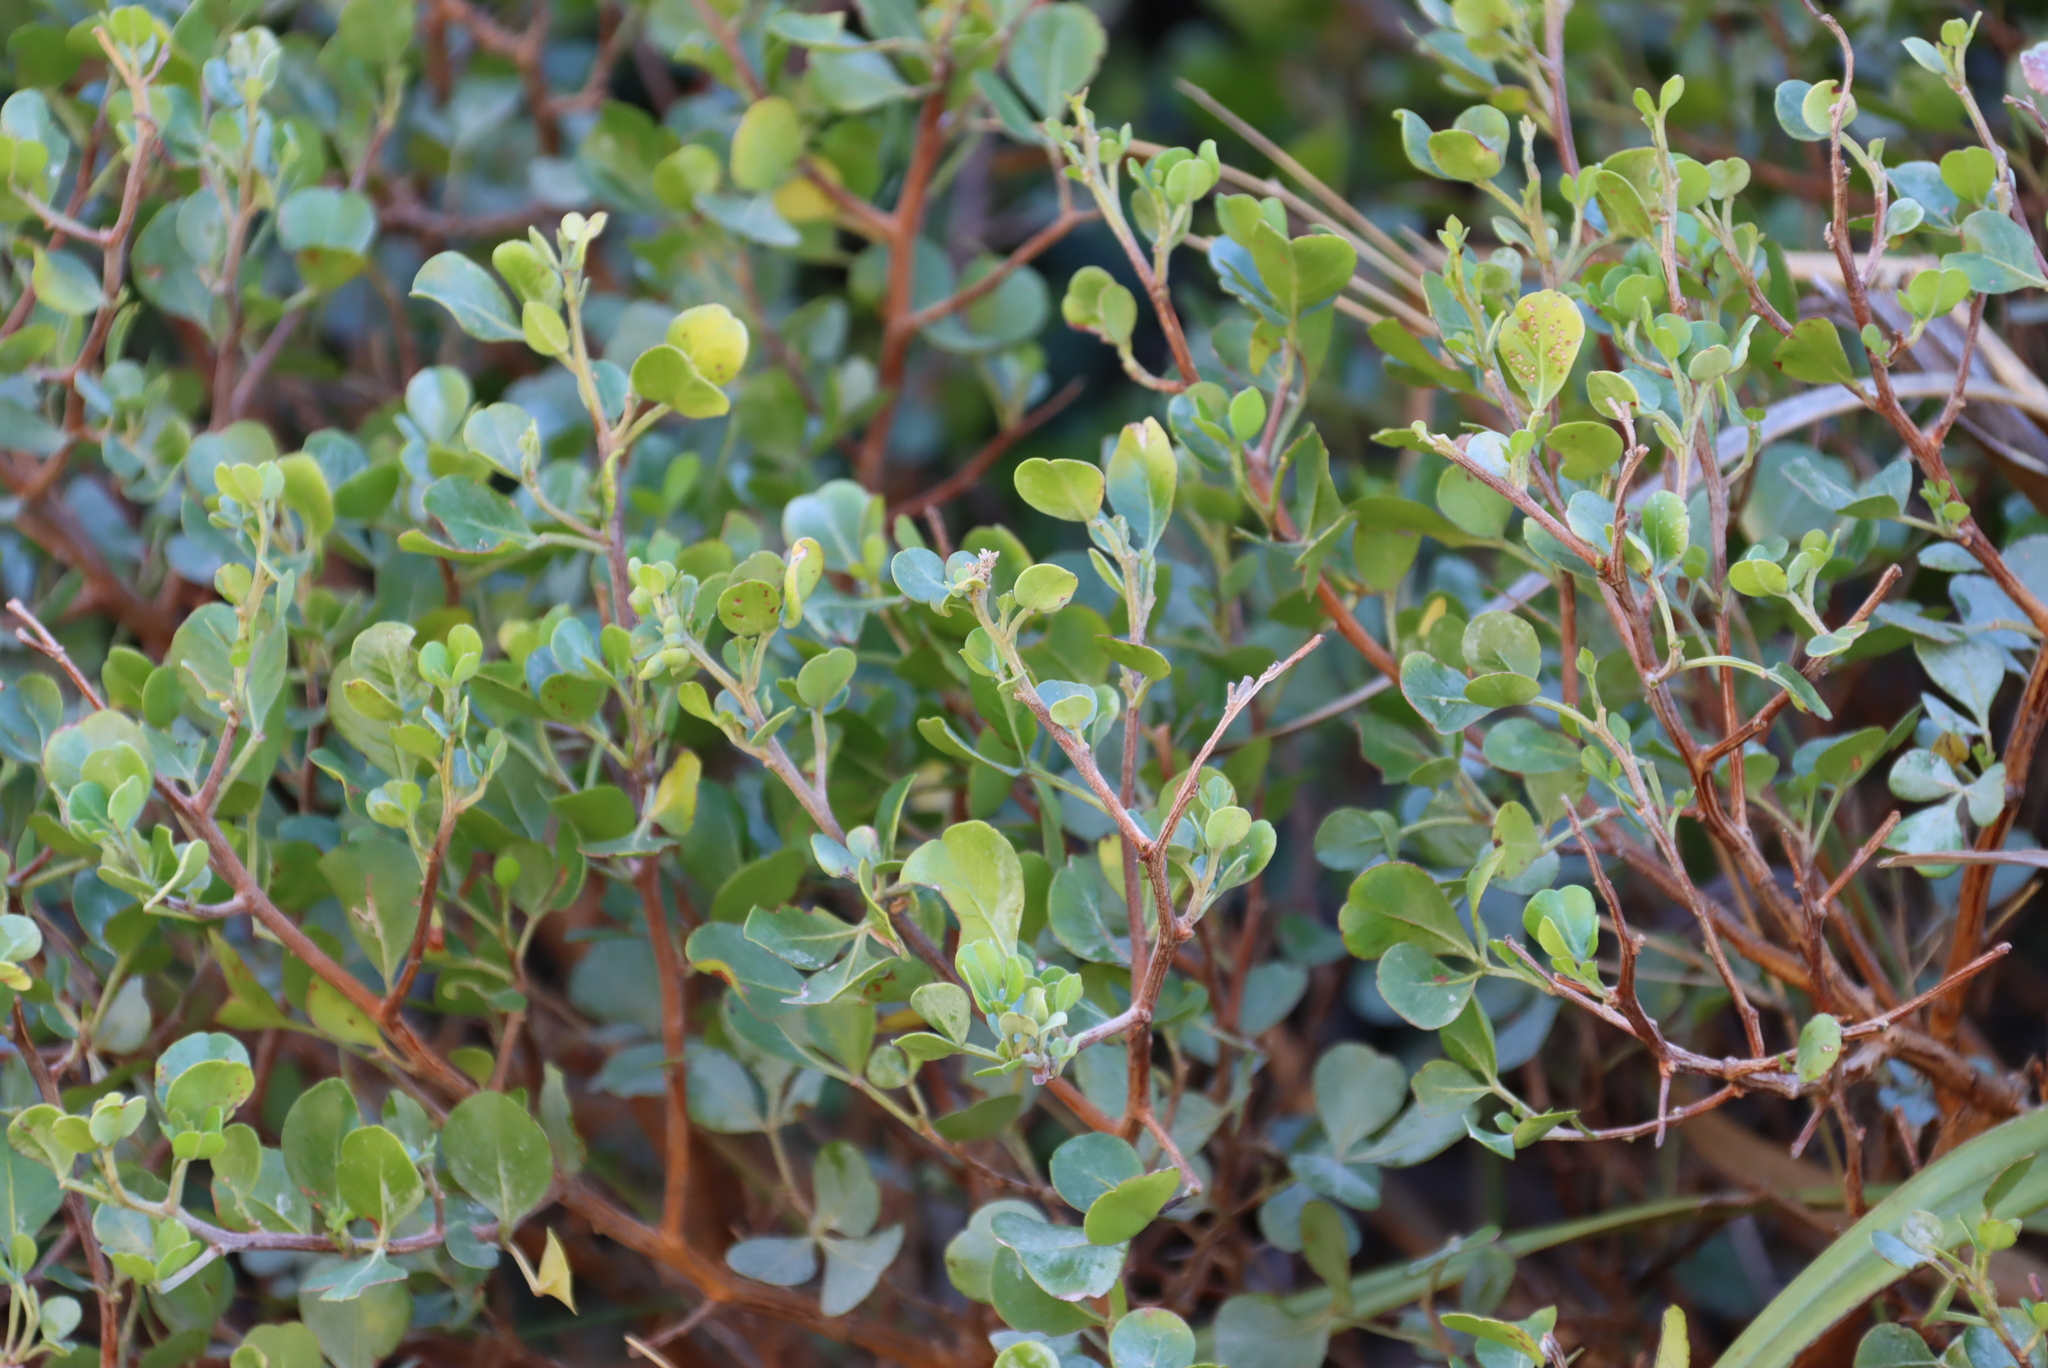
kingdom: Plantae
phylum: Tracheophyta
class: Magnoliopsida
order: Sapindales
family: Anacardiaceae
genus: Searsia
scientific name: Searsia glauca
